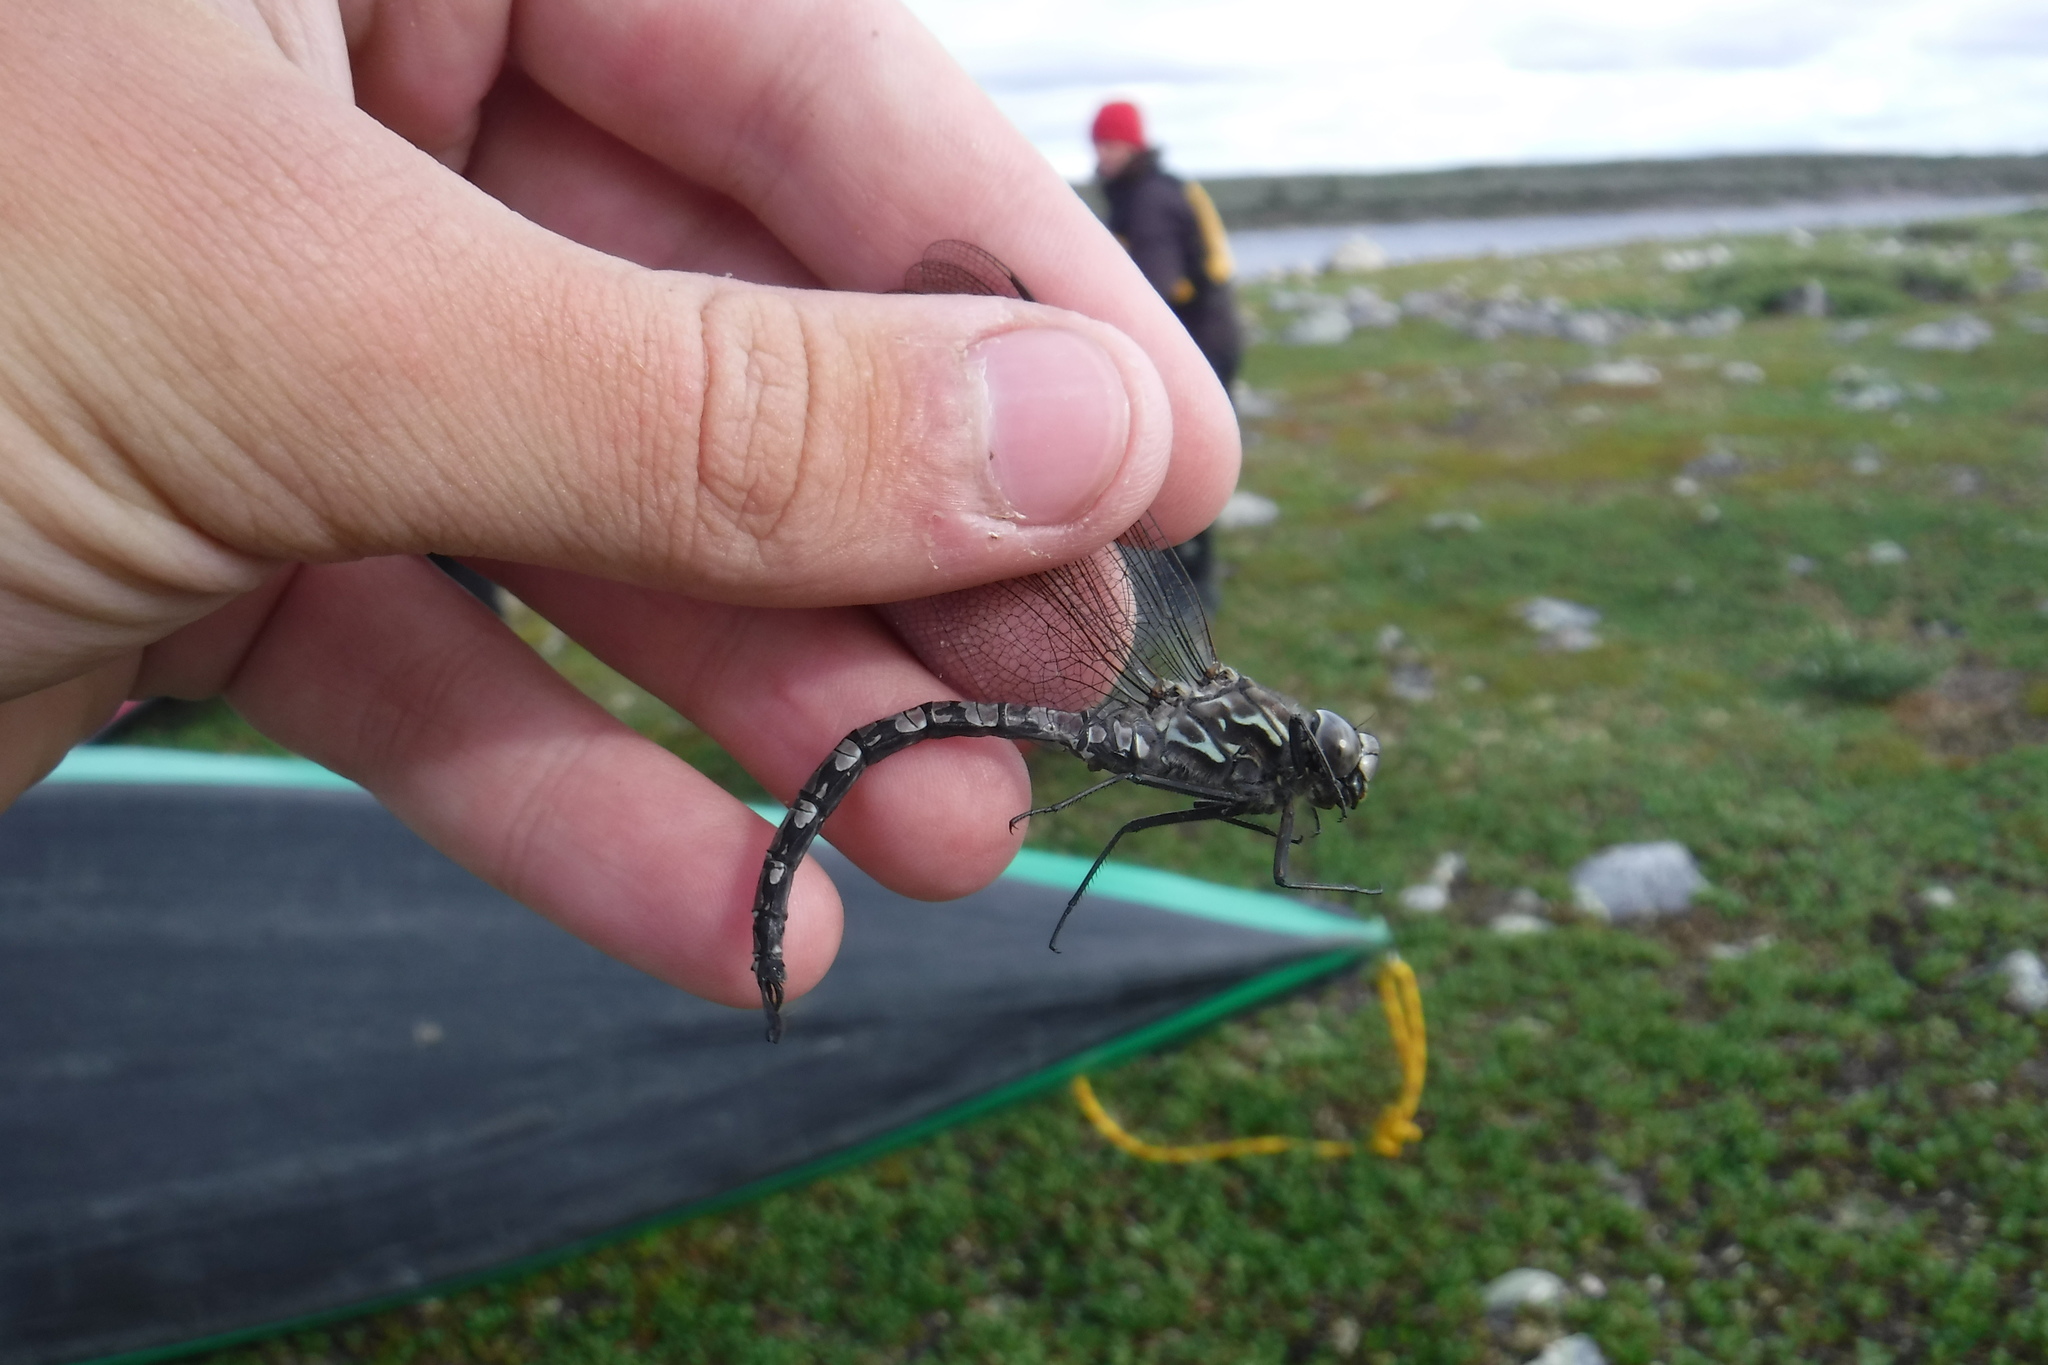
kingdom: Animalia
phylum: Arthropoda
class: Insecta
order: Odonata
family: Aeshnidae
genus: Aeshna
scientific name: Aeshna septentrionalis
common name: Azure darner
